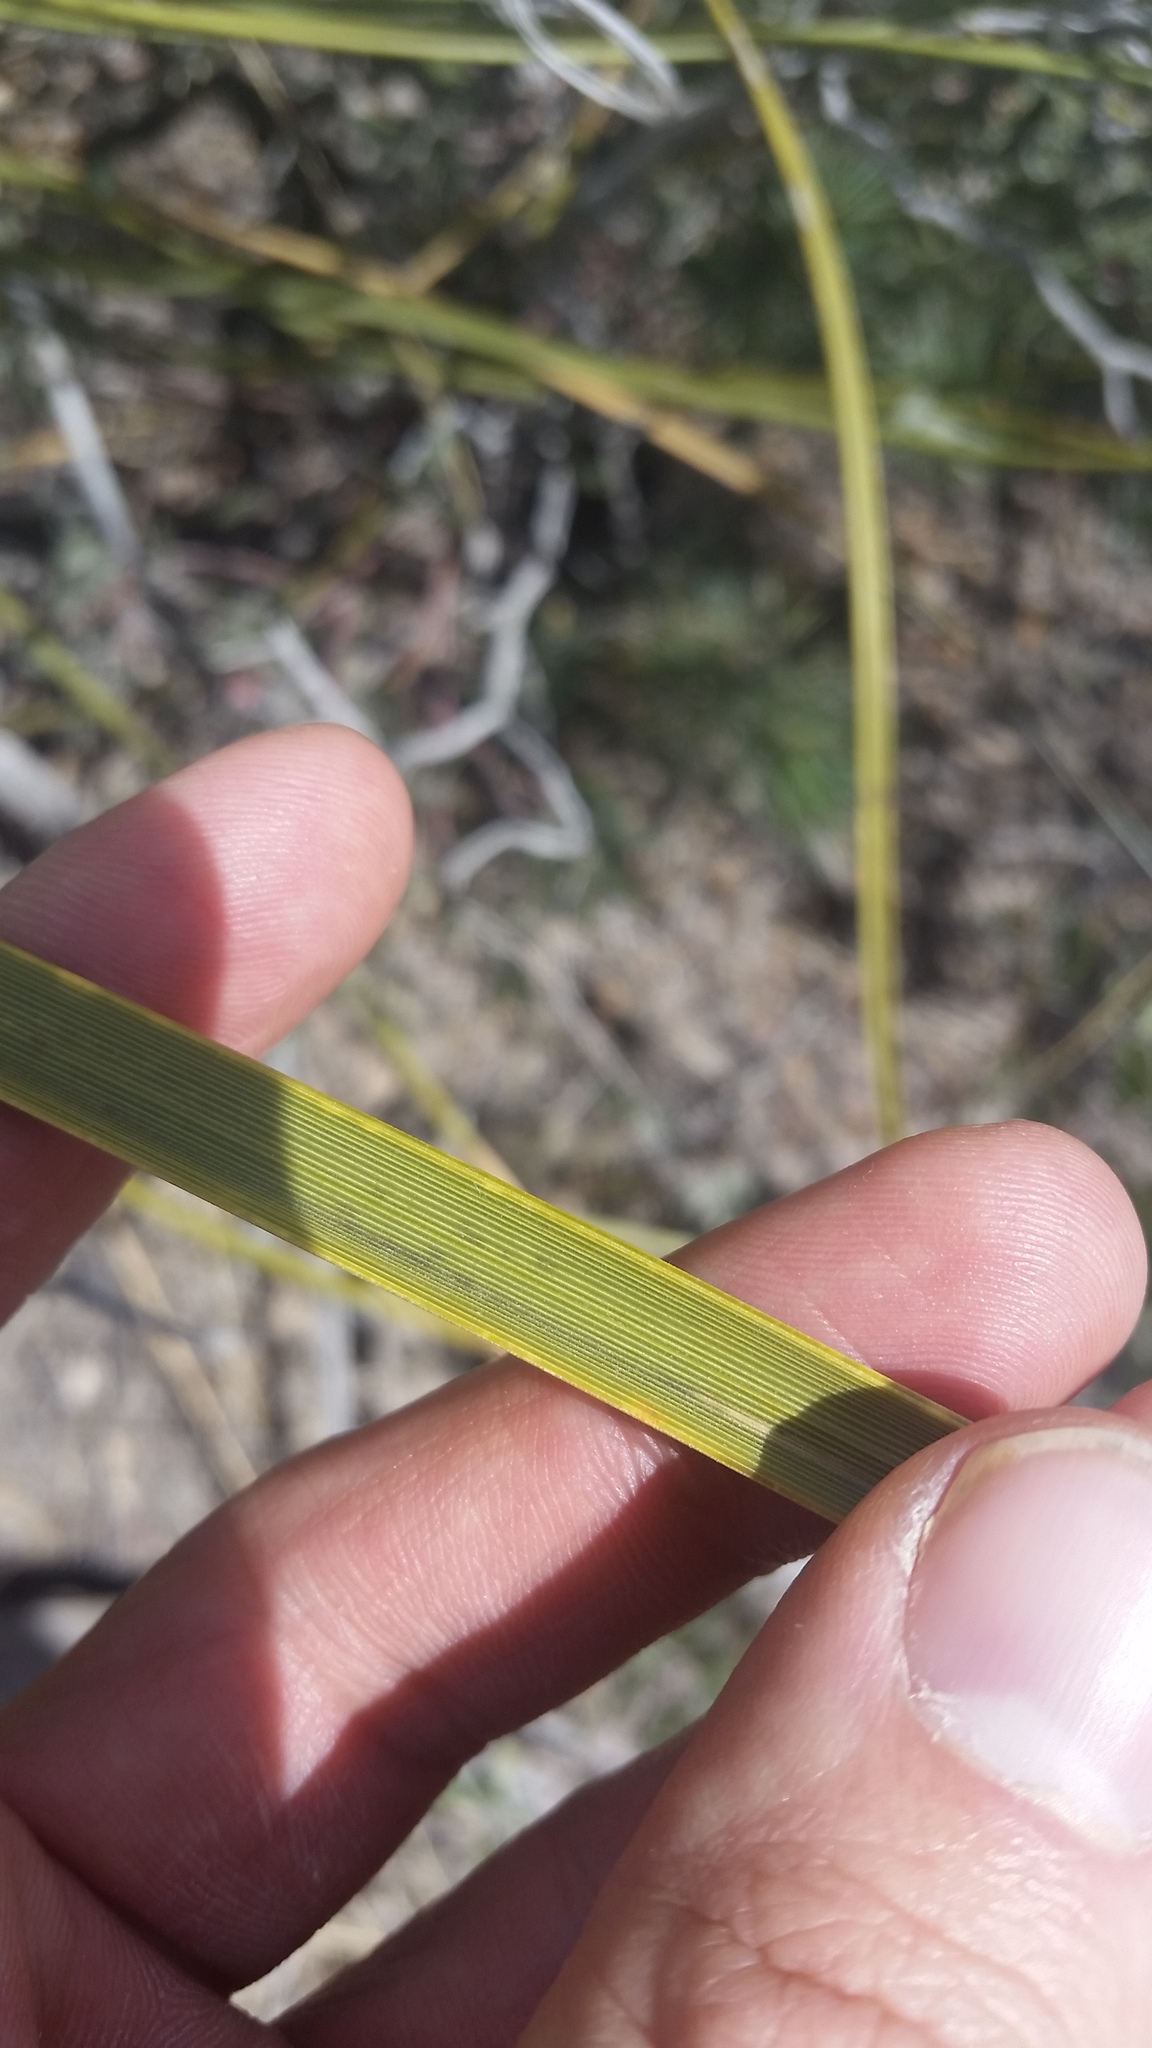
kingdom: Plantae
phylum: Tracheophyta
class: Liliopsida
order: Asparagales
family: Asparagaceae
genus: Nolina
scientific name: Nolina microcarpa
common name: Bear-grass
